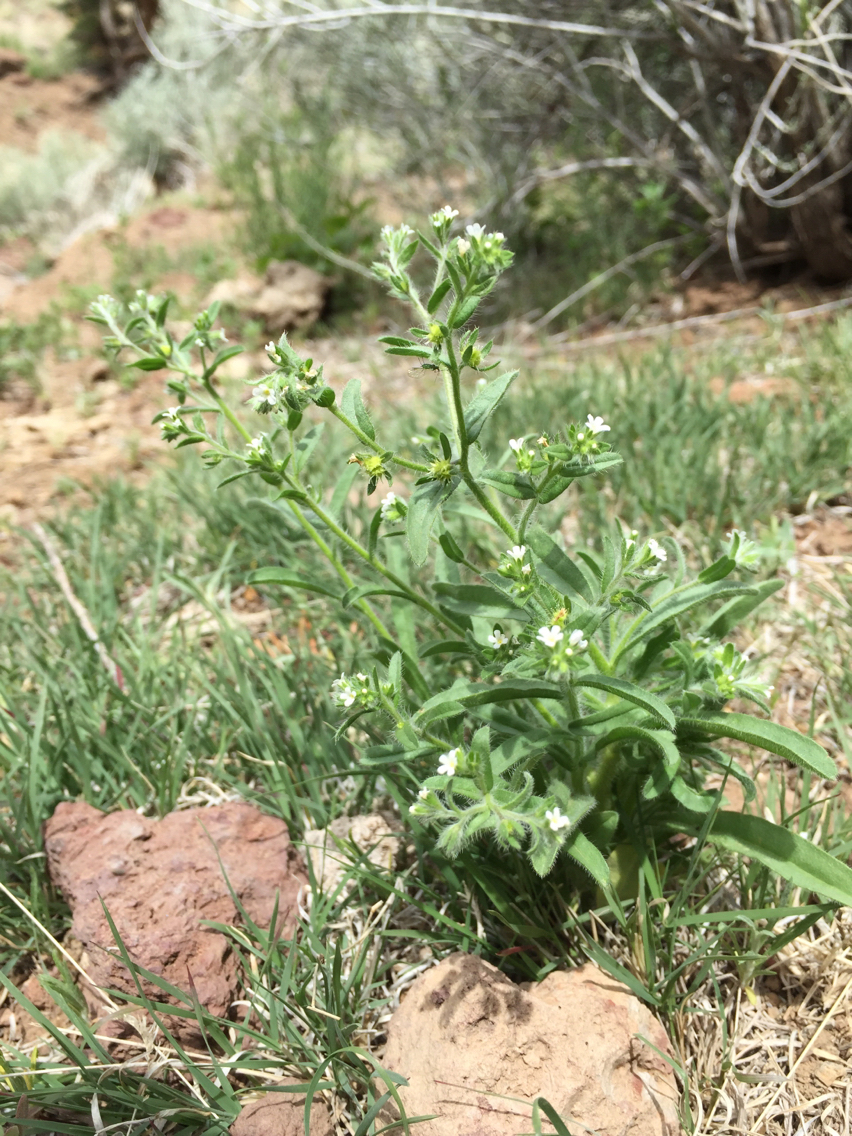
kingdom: Plantae
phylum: Tracheophyta
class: Magnoliopsida
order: Boraginales
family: Boraginaceae
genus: Hackelia
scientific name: Hackelia floribunda
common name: Large-flowered stickseed
